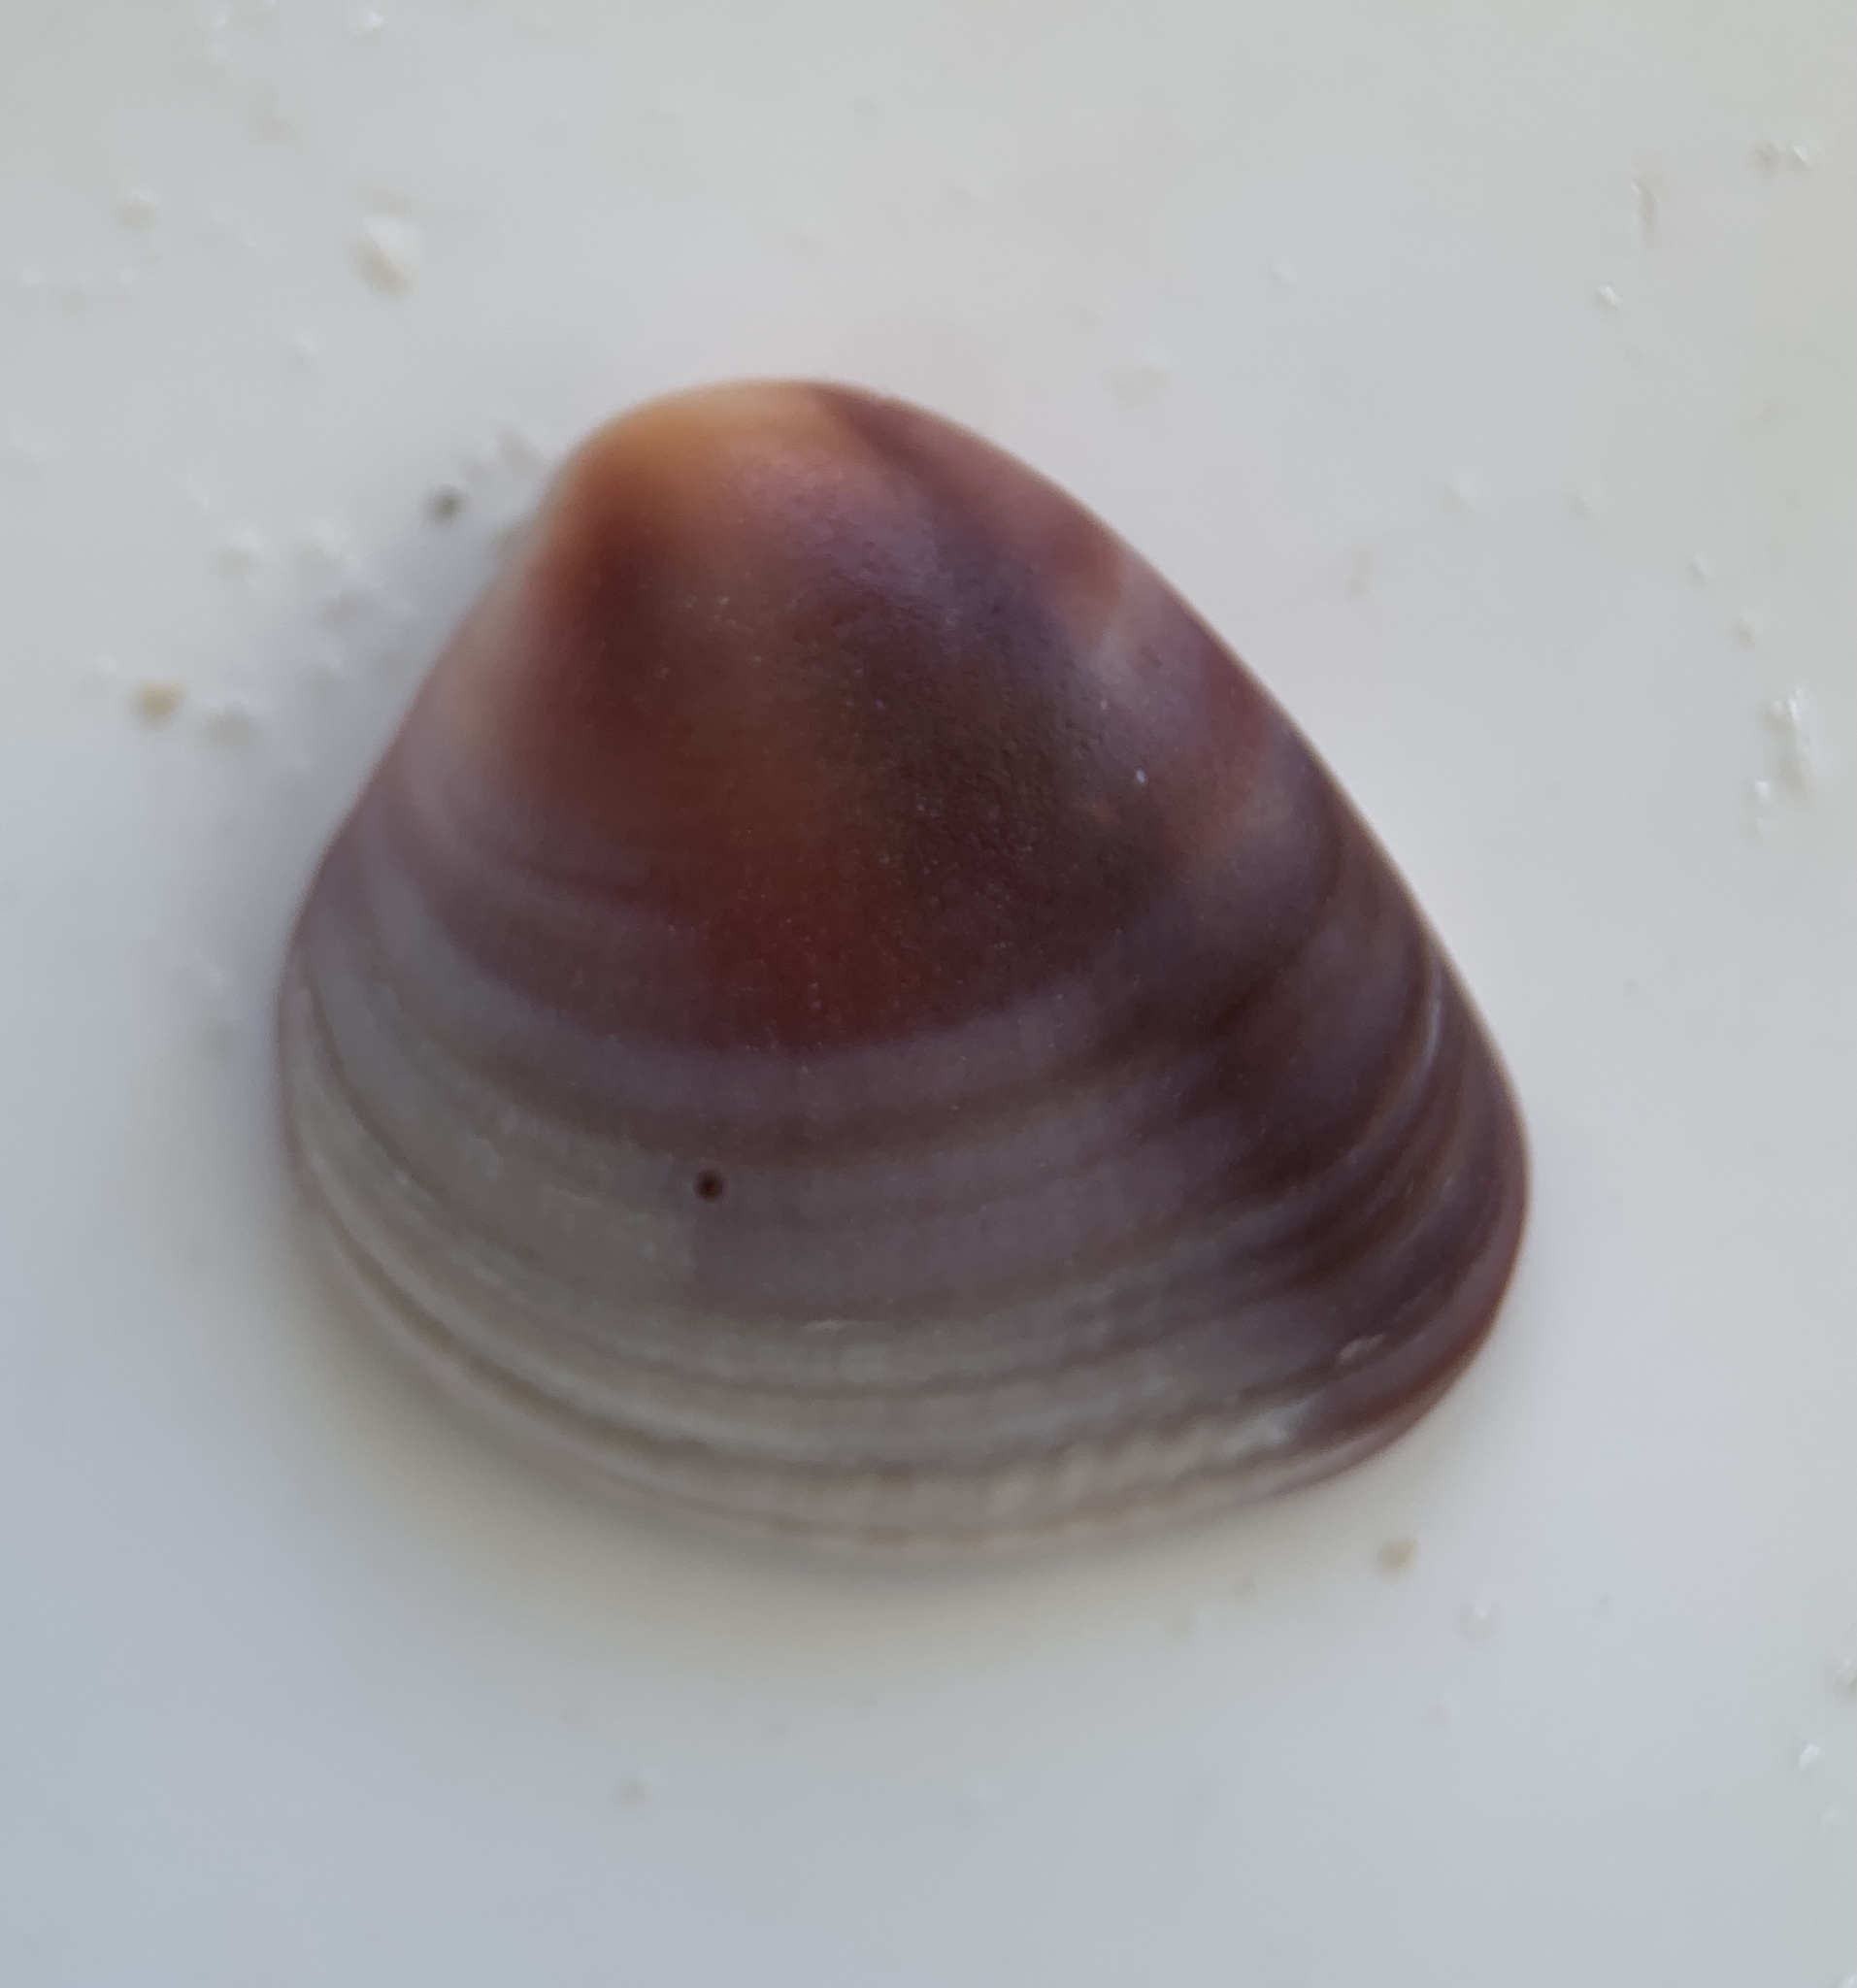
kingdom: Animalia
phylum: Mollusca
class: Bivalvia
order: Venerida
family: Veneridae
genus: Chione
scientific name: Chione elevata
